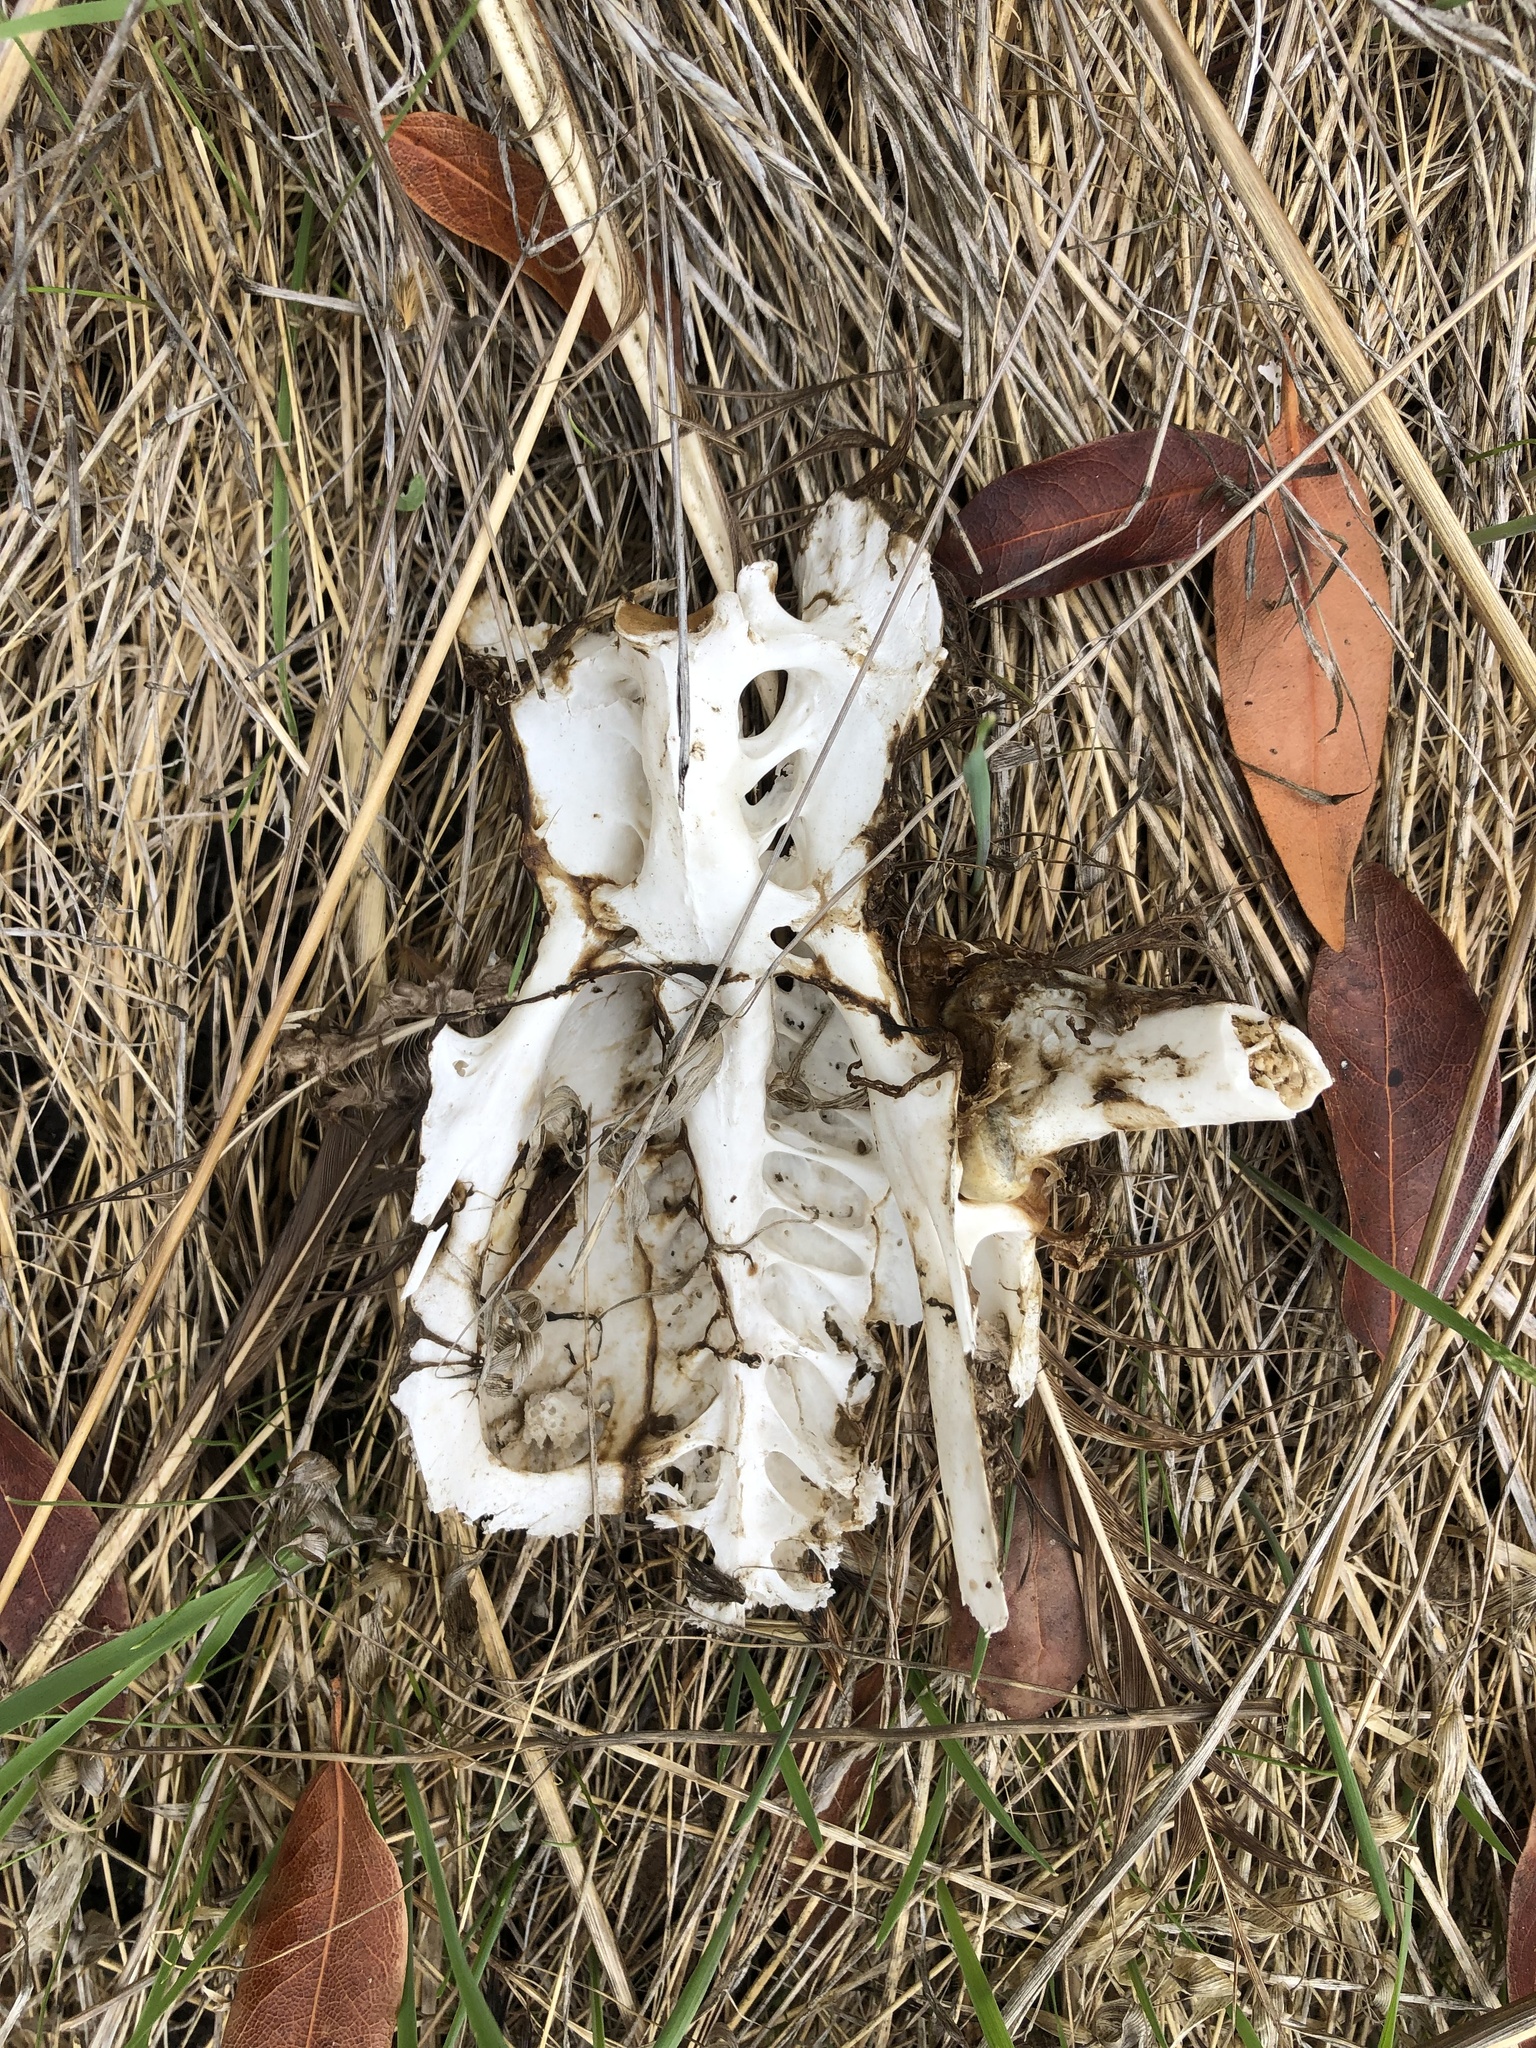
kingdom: Animalia
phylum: Chordata
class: Aves
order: Galliformes
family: Phasianidae
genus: Meleagris
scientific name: Meleagris gallopavo
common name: Wild turkey
